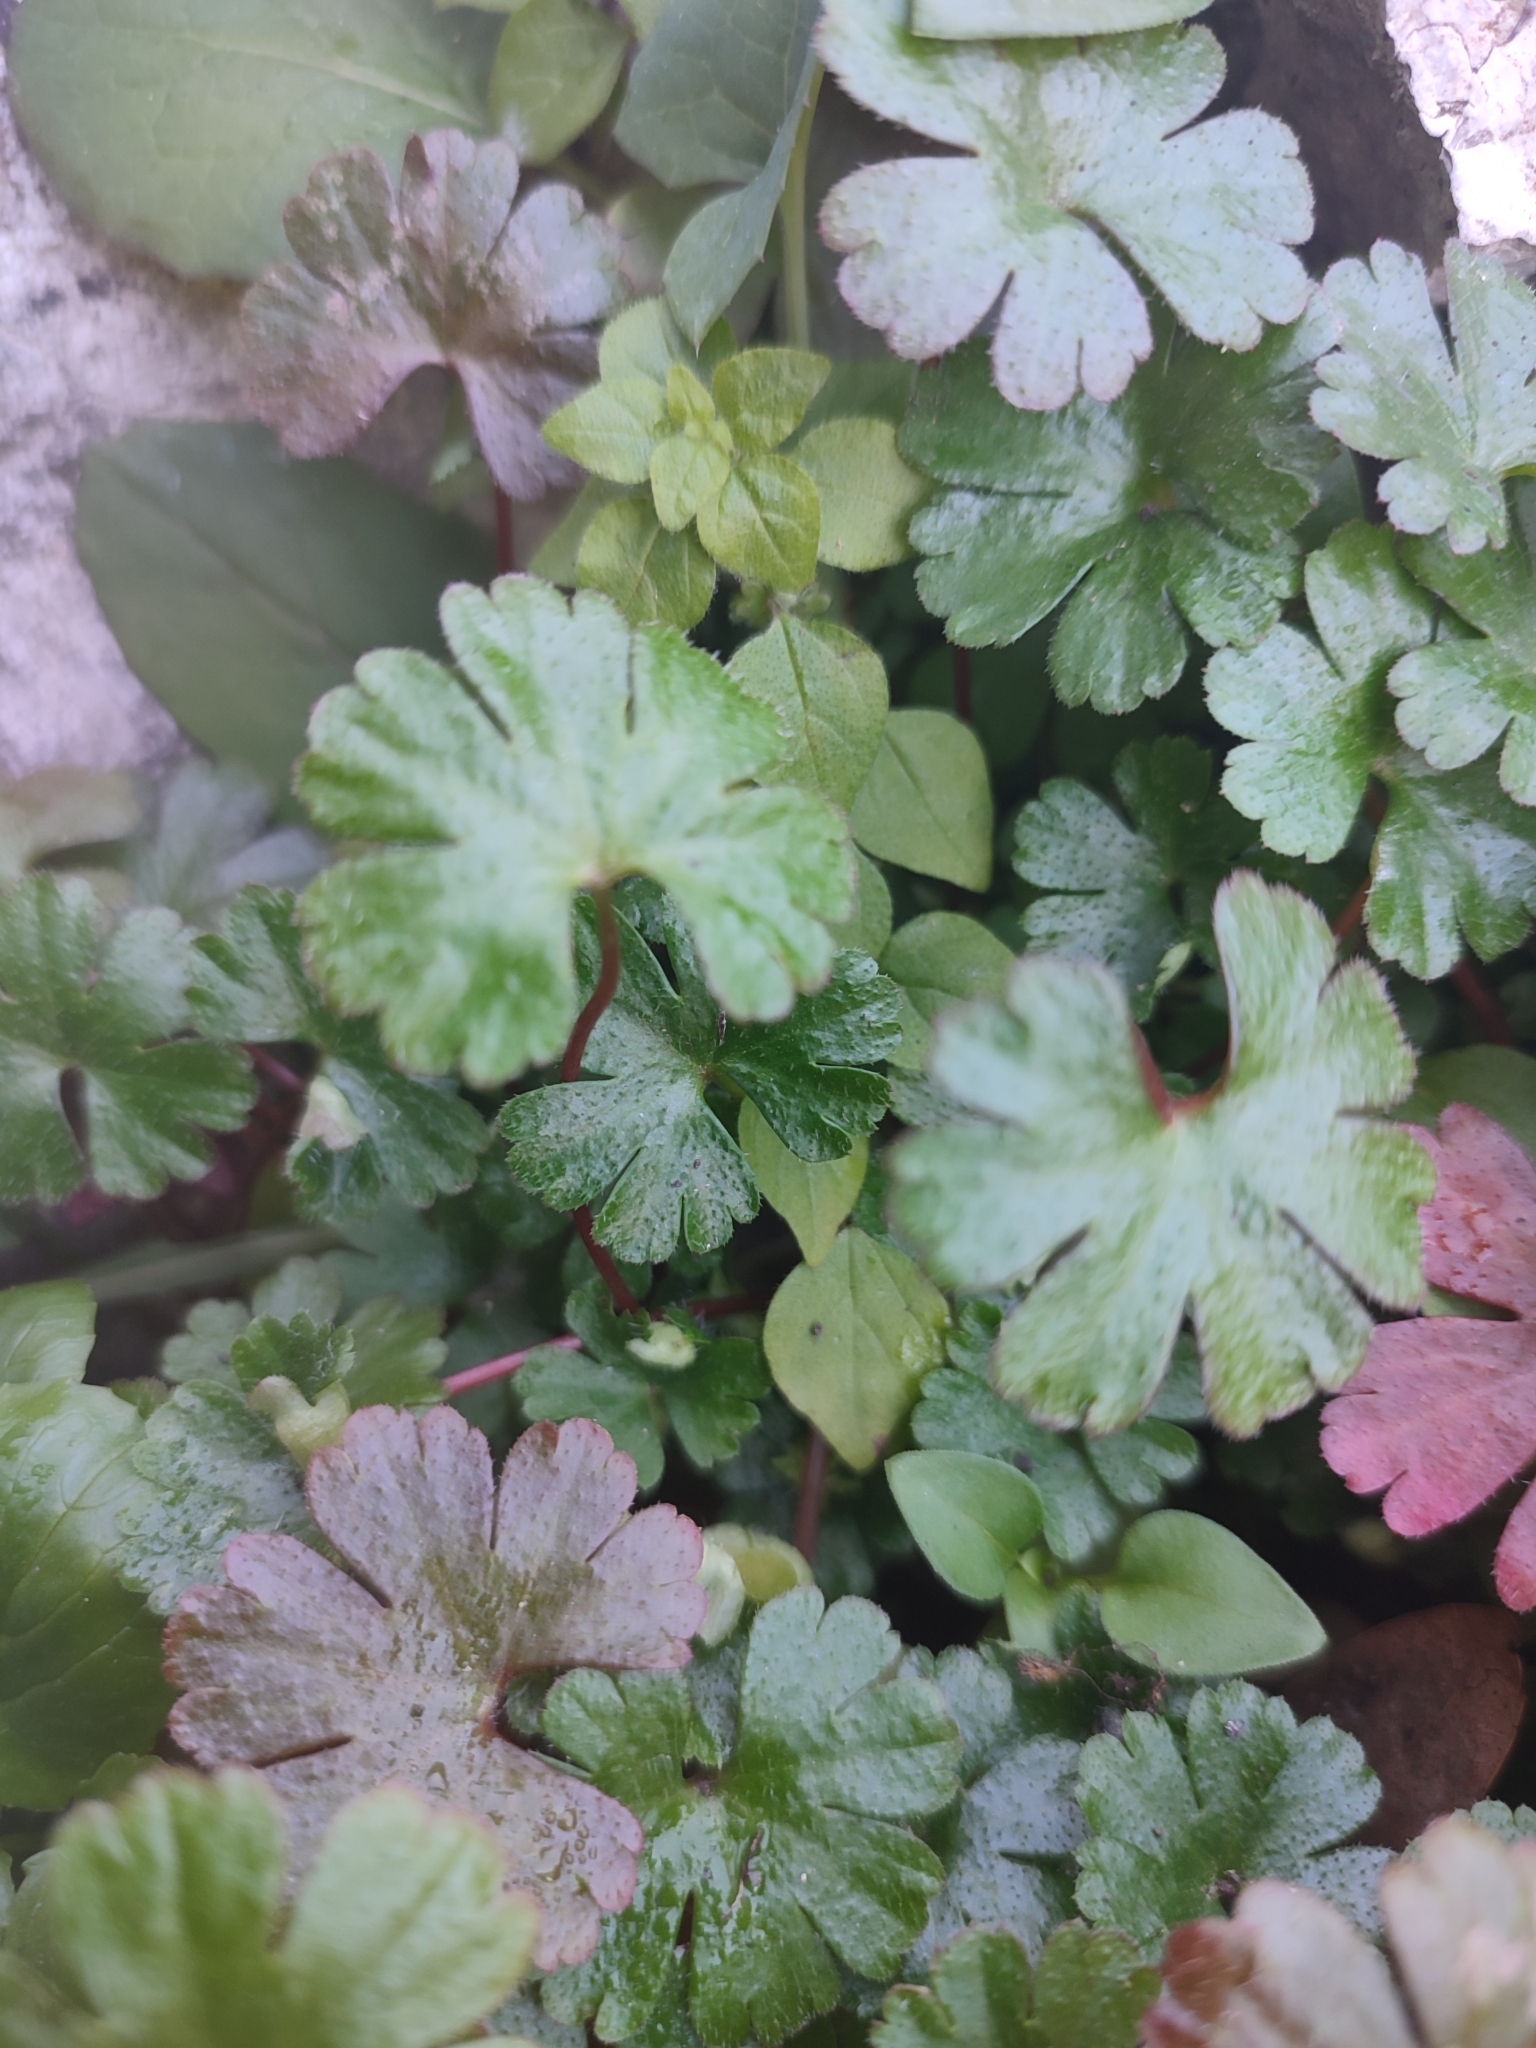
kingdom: Plantae
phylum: Tracheophyta
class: Magnoliopsida
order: Geraniales
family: Geraniaceae
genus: Geranium
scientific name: Geranium lucidum
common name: Shining crane's-bill
